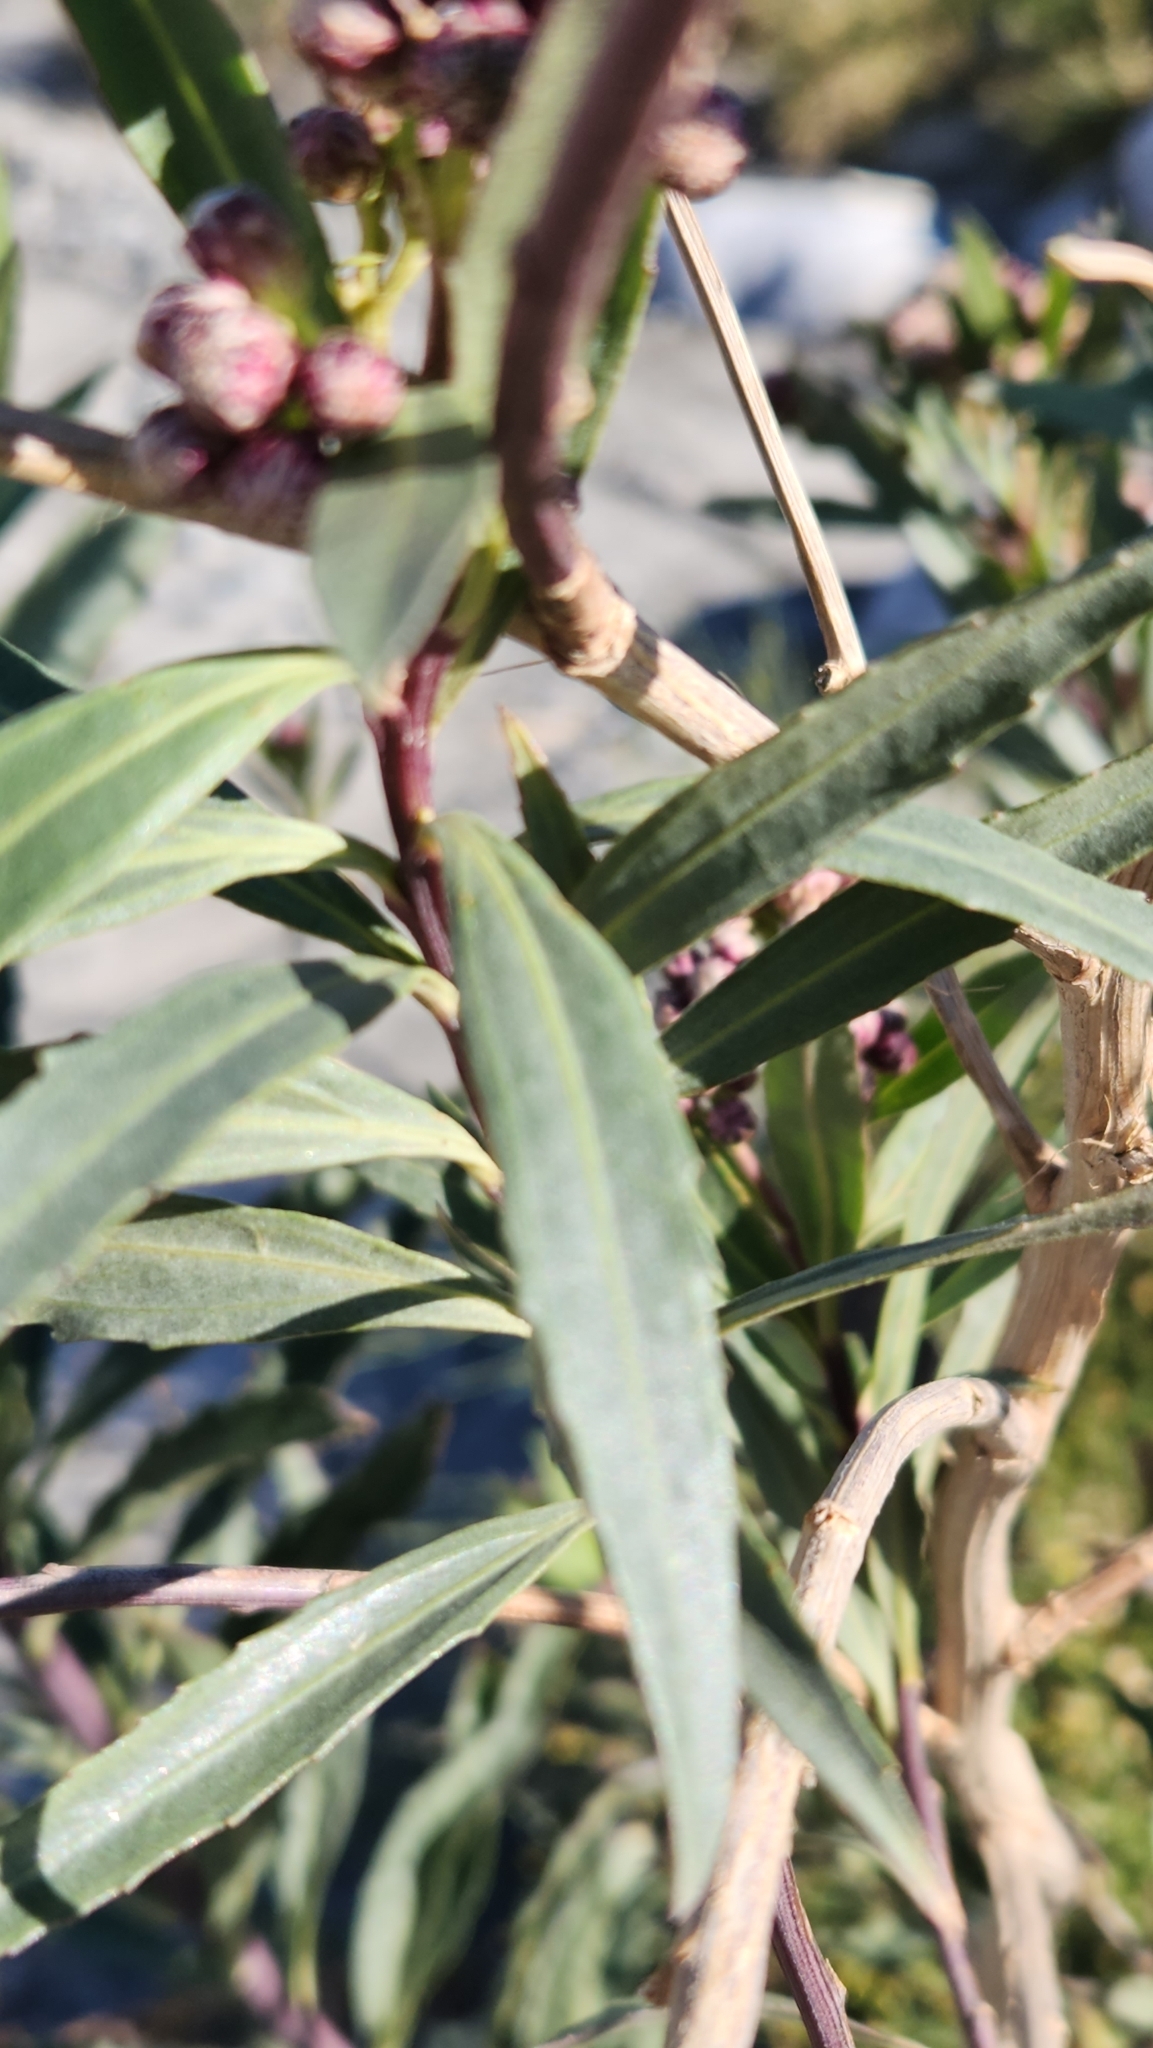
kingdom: Plantae
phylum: Tracheophyta
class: Magnoliopsida
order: Asterales
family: Asteraceae
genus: Baccharis
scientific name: Baccharis salicifolia
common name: Sticky baccharis
